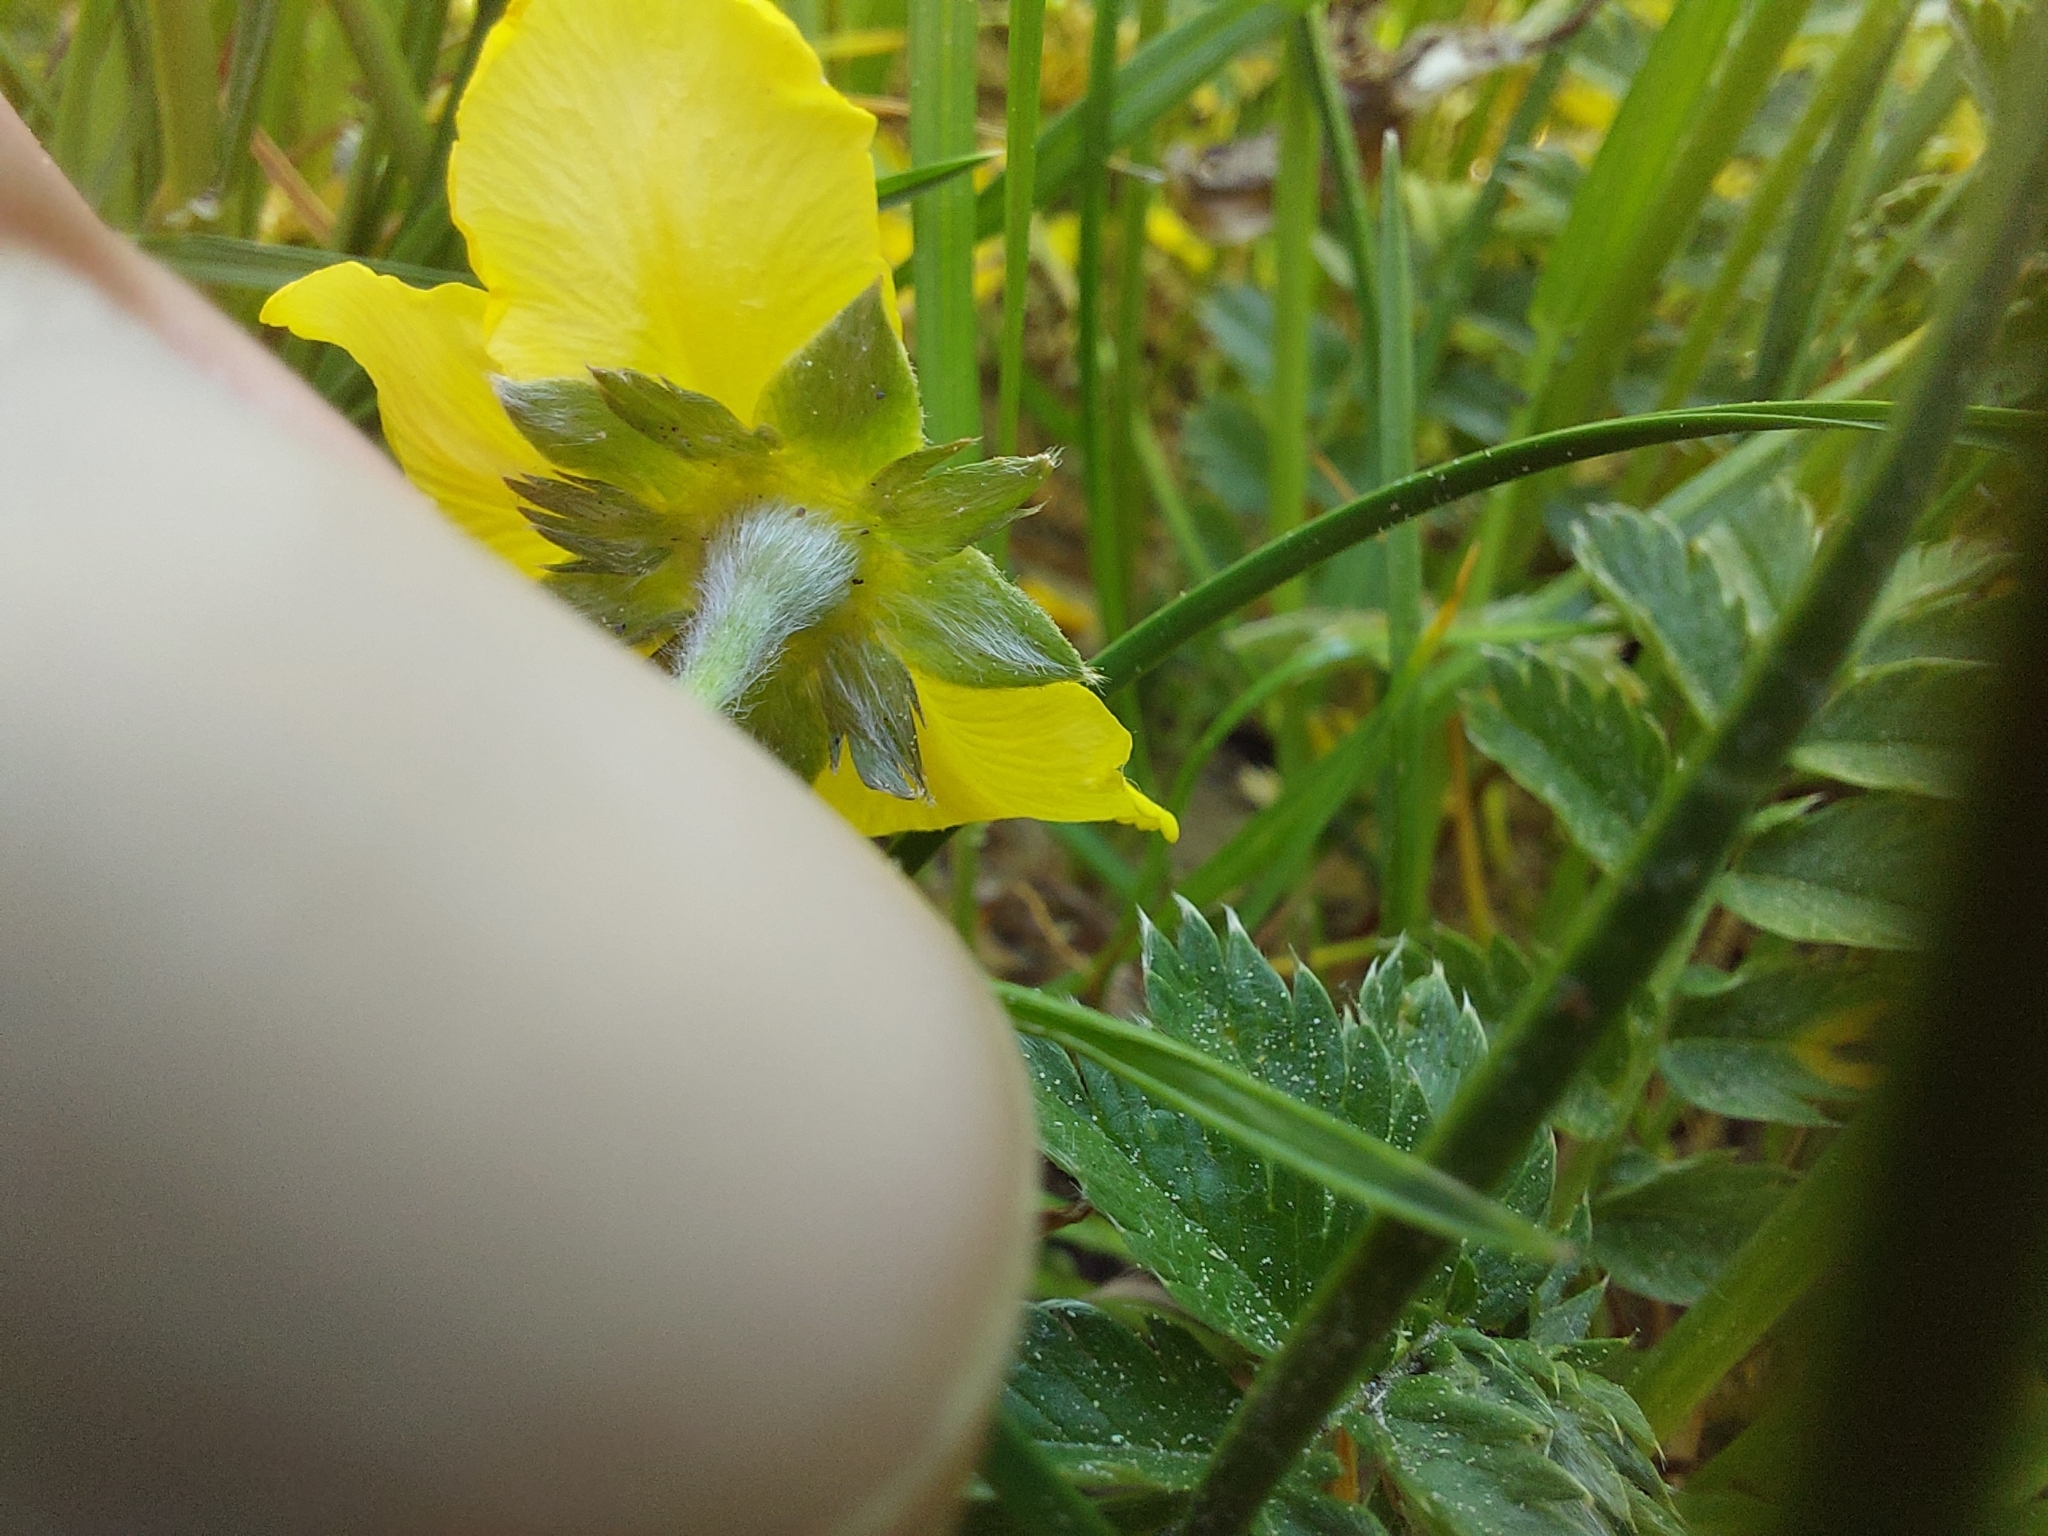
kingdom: Plantae
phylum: Tracheophyta
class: Magnoliopsida
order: Rosales
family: Rosaceae
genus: Argentina
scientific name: Argentina anserina
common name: Common silverweed
